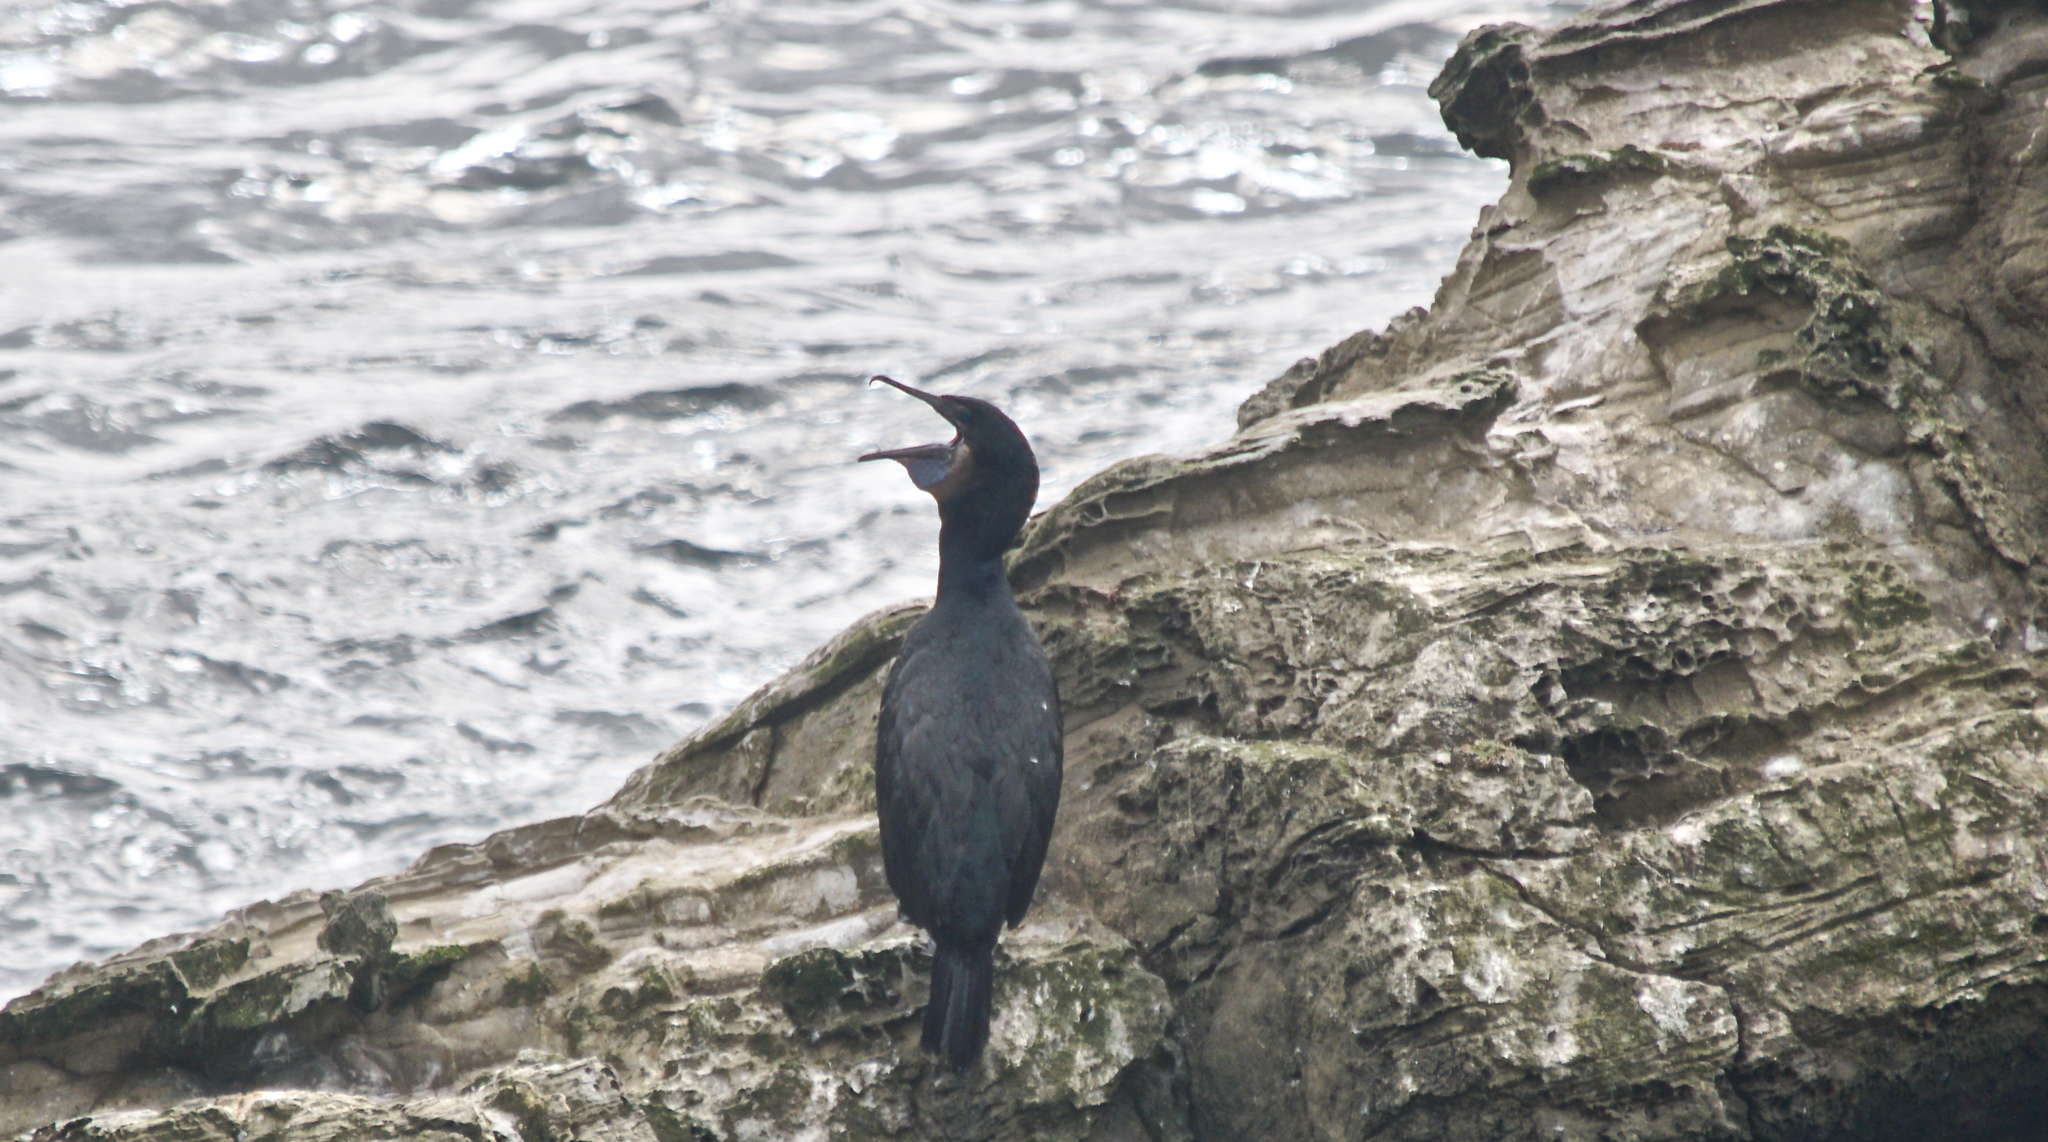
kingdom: Animalia
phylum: Chordata
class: Aves
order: Suliformes
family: Phalacrocoracidae
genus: Urile
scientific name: Urile penicillatus
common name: Brandt's cormorant
